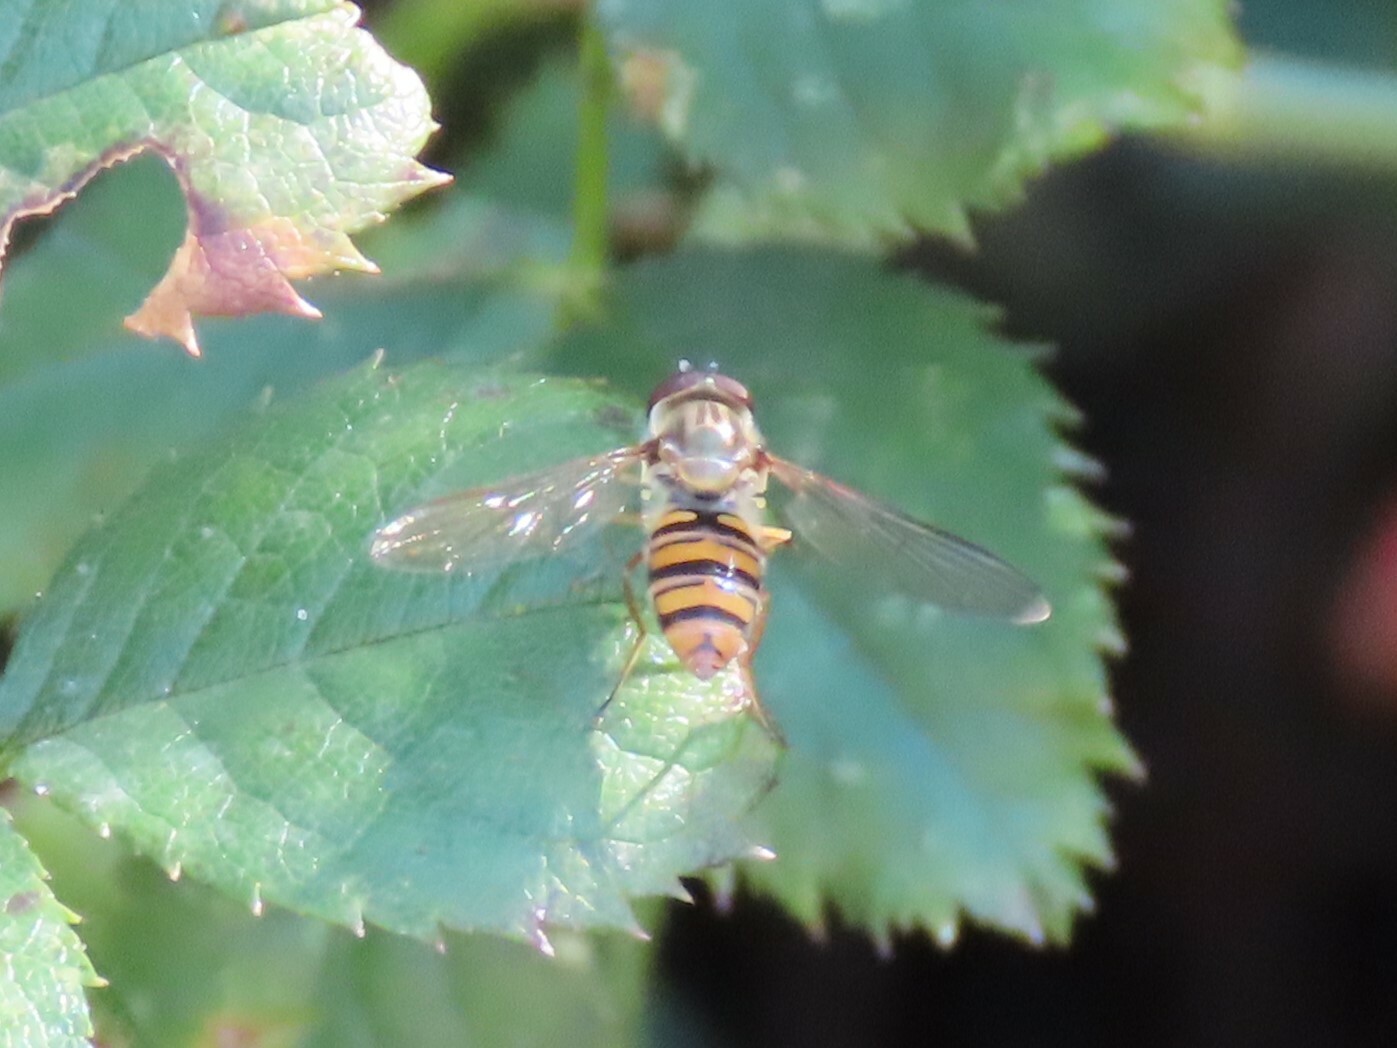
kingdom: Animalia
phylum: Arthropoda
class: Insecta
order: Diptera
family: Syrphidae
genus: Episyrphus
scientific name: Episyrphus balteatus
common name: Marmalade hoverfly
